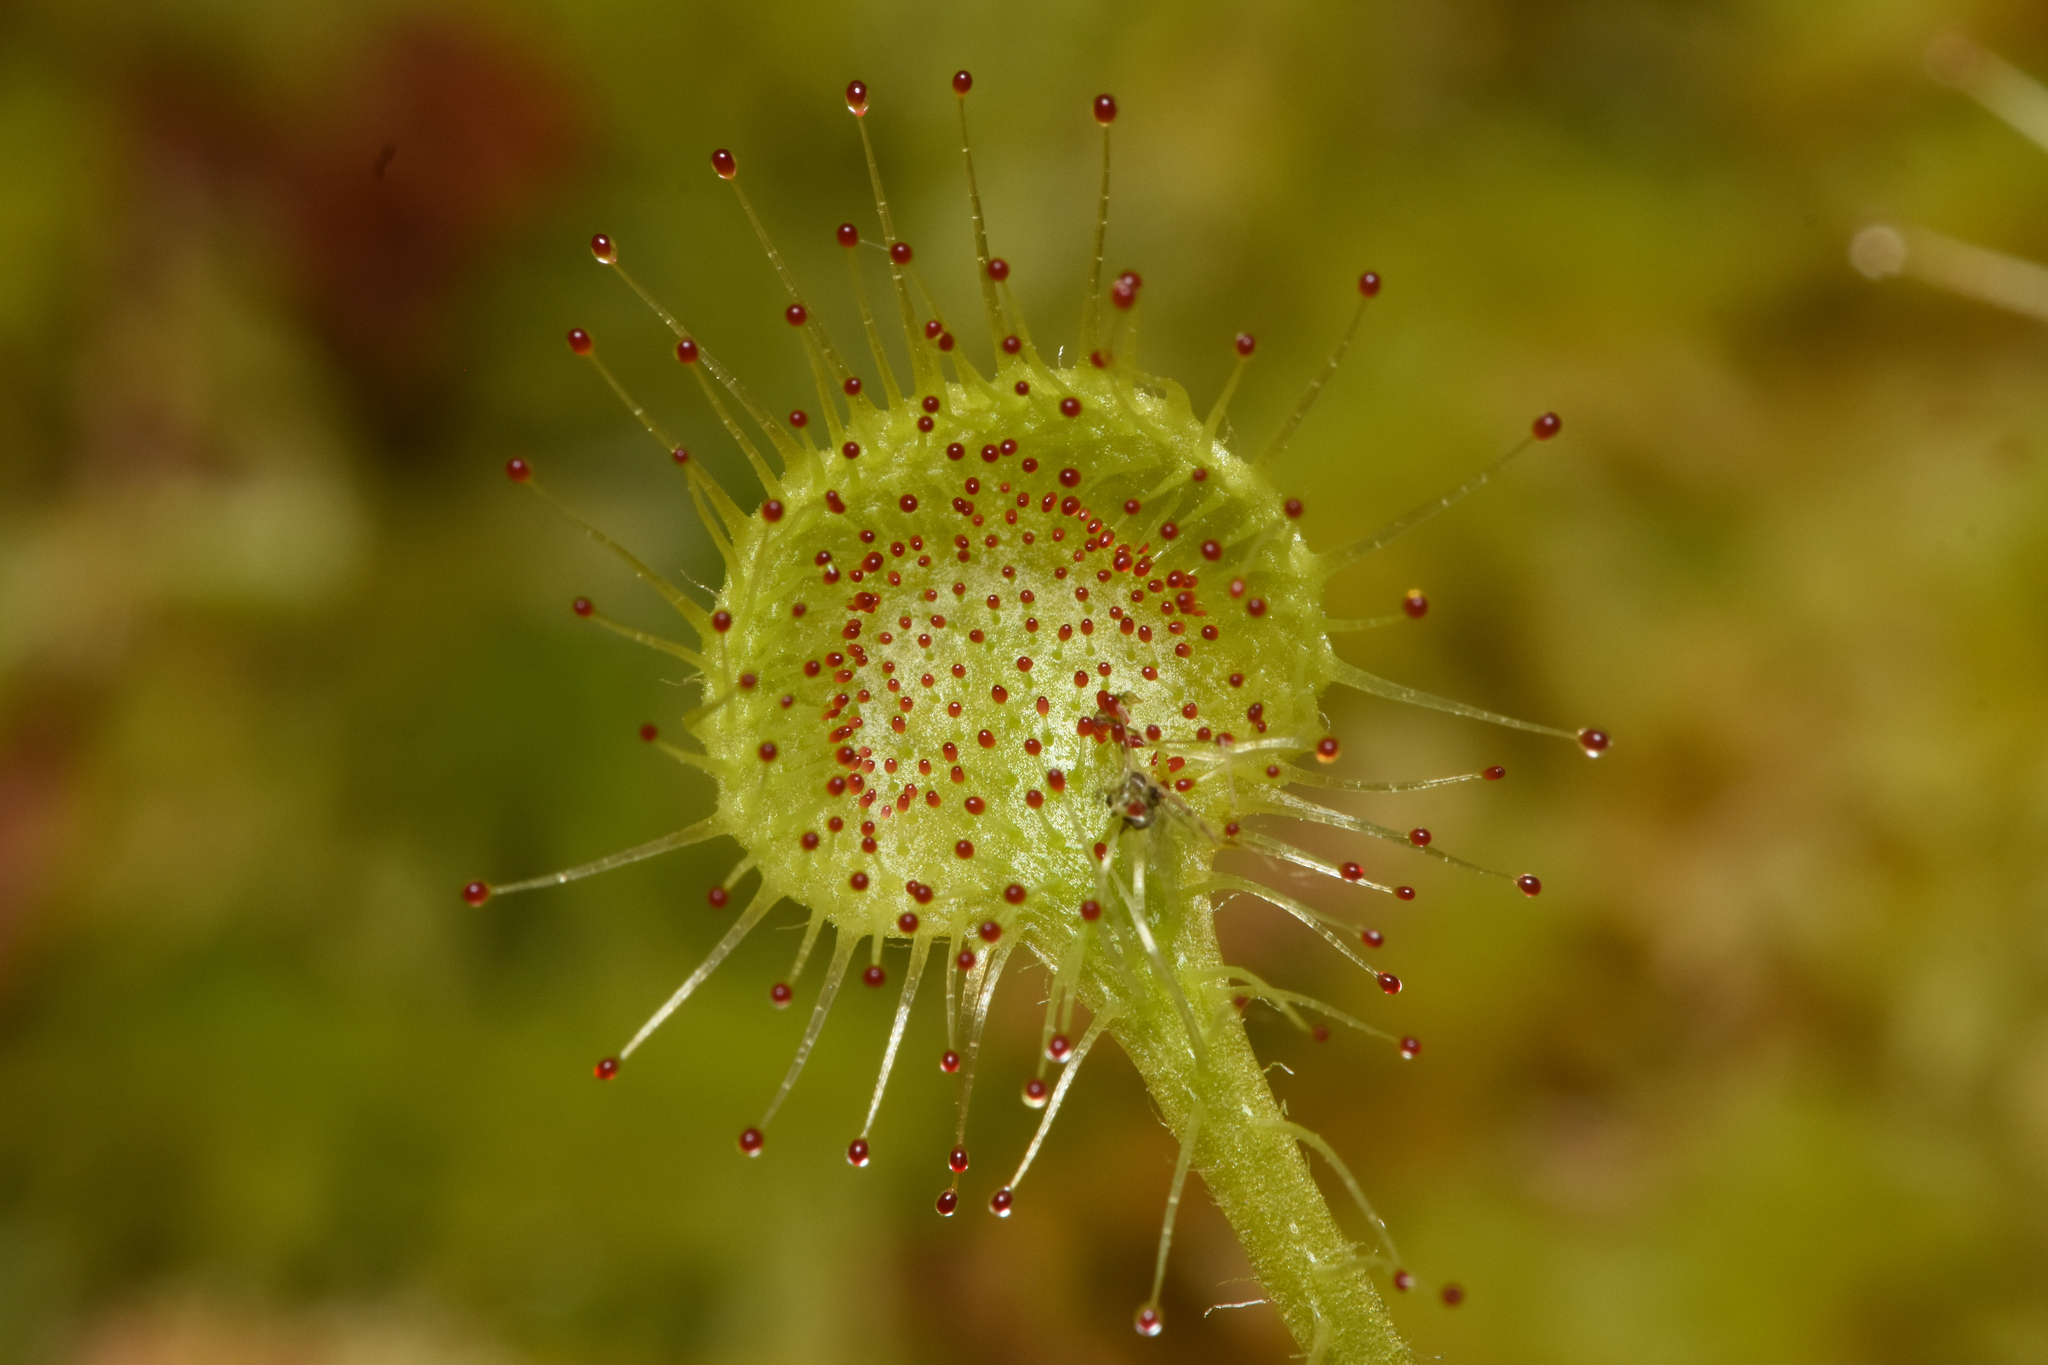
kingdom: Plantae
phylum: Tracheophyta
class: Magnoliopsida
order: Caryophyllales
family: Droseraceae
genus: Drosera
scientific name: Drosera rotundifolia
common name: Round-leaved sundew
